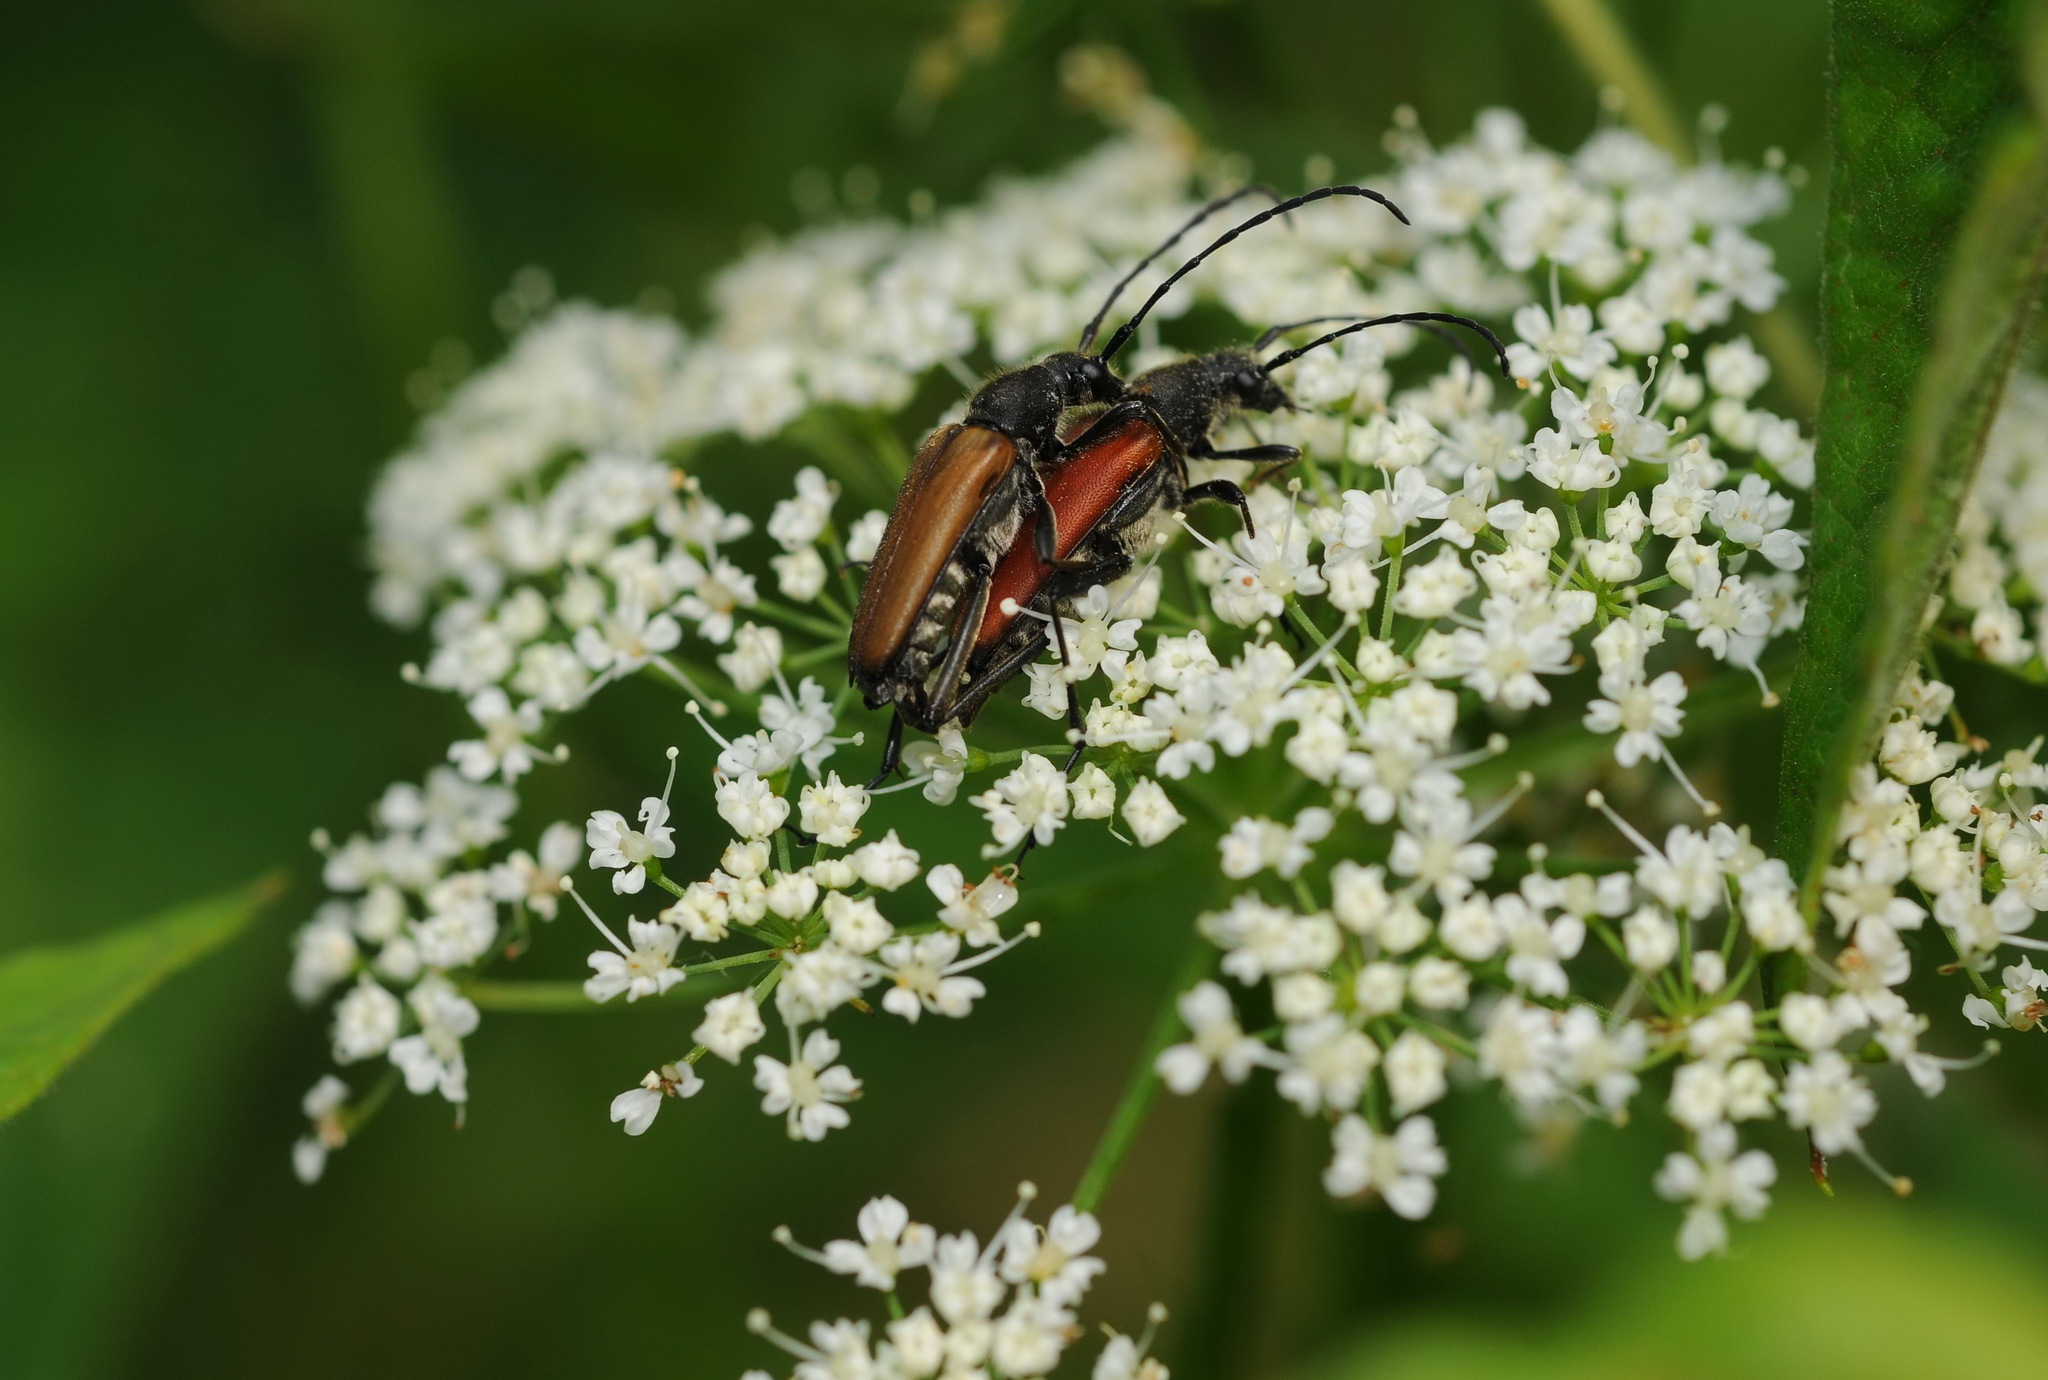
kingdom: Animalia
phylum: Arthropoda
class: Insecta
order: Coleoptera
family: Cerambycidae
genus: Anastrangalia
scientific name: Anastrangalia reyi
